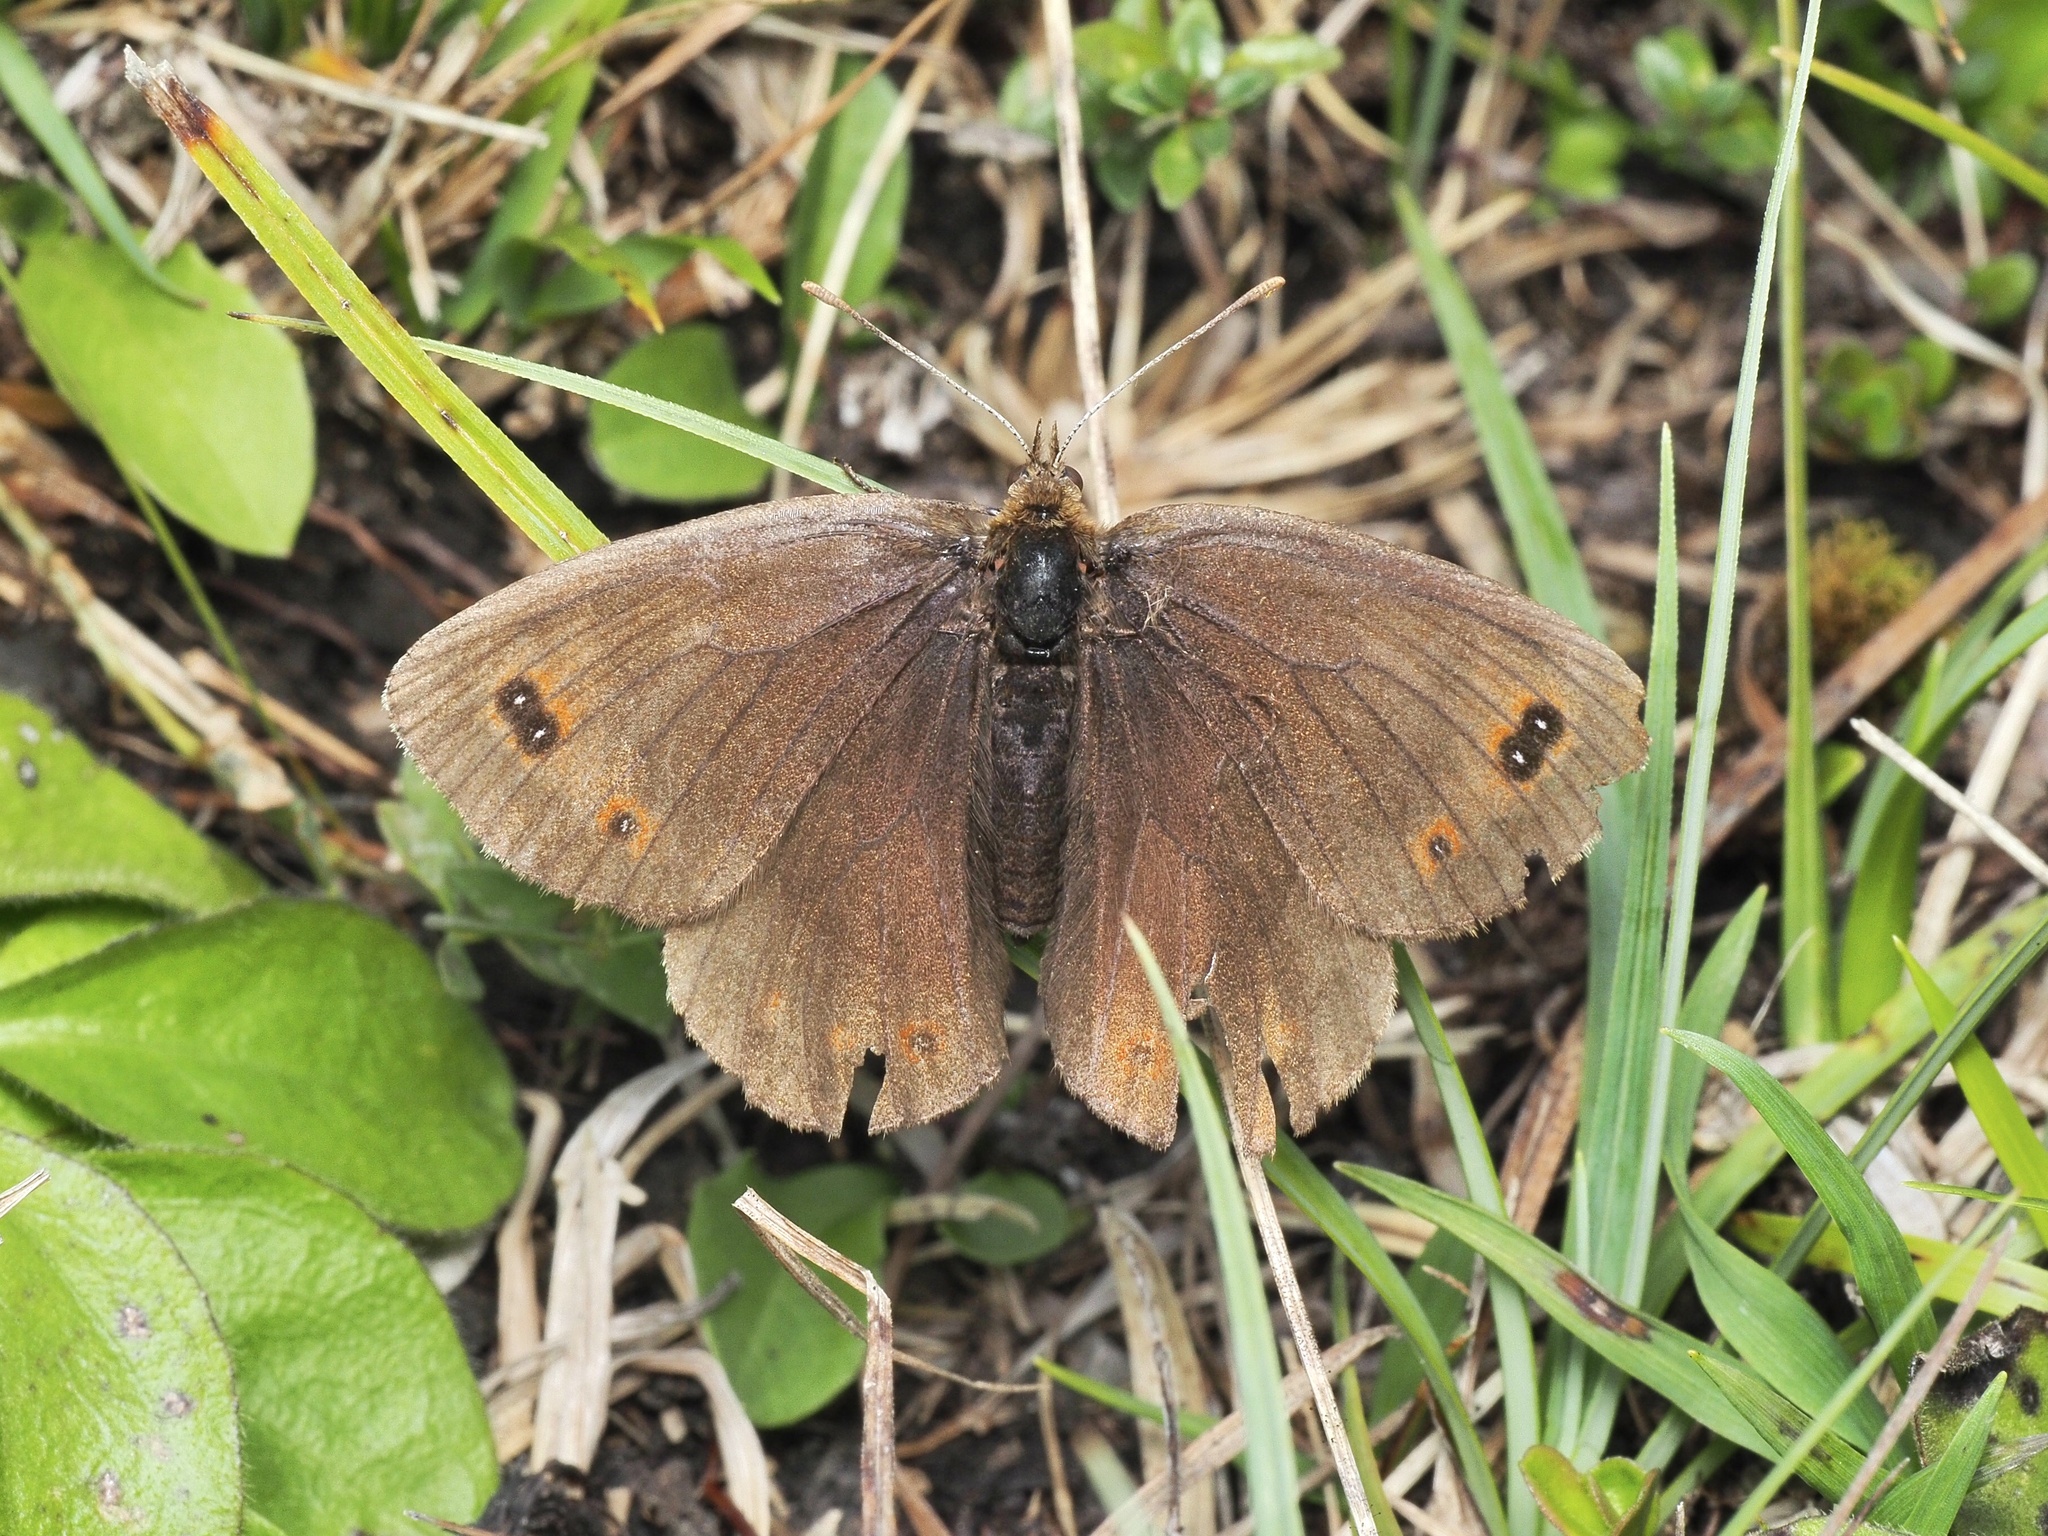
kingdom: Animalia
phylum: Arthropoda
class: Insecta
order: Lepidoptera
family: Nymphalidae
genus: Erebia
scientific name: Erebia aethiops
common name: Scotch argus
